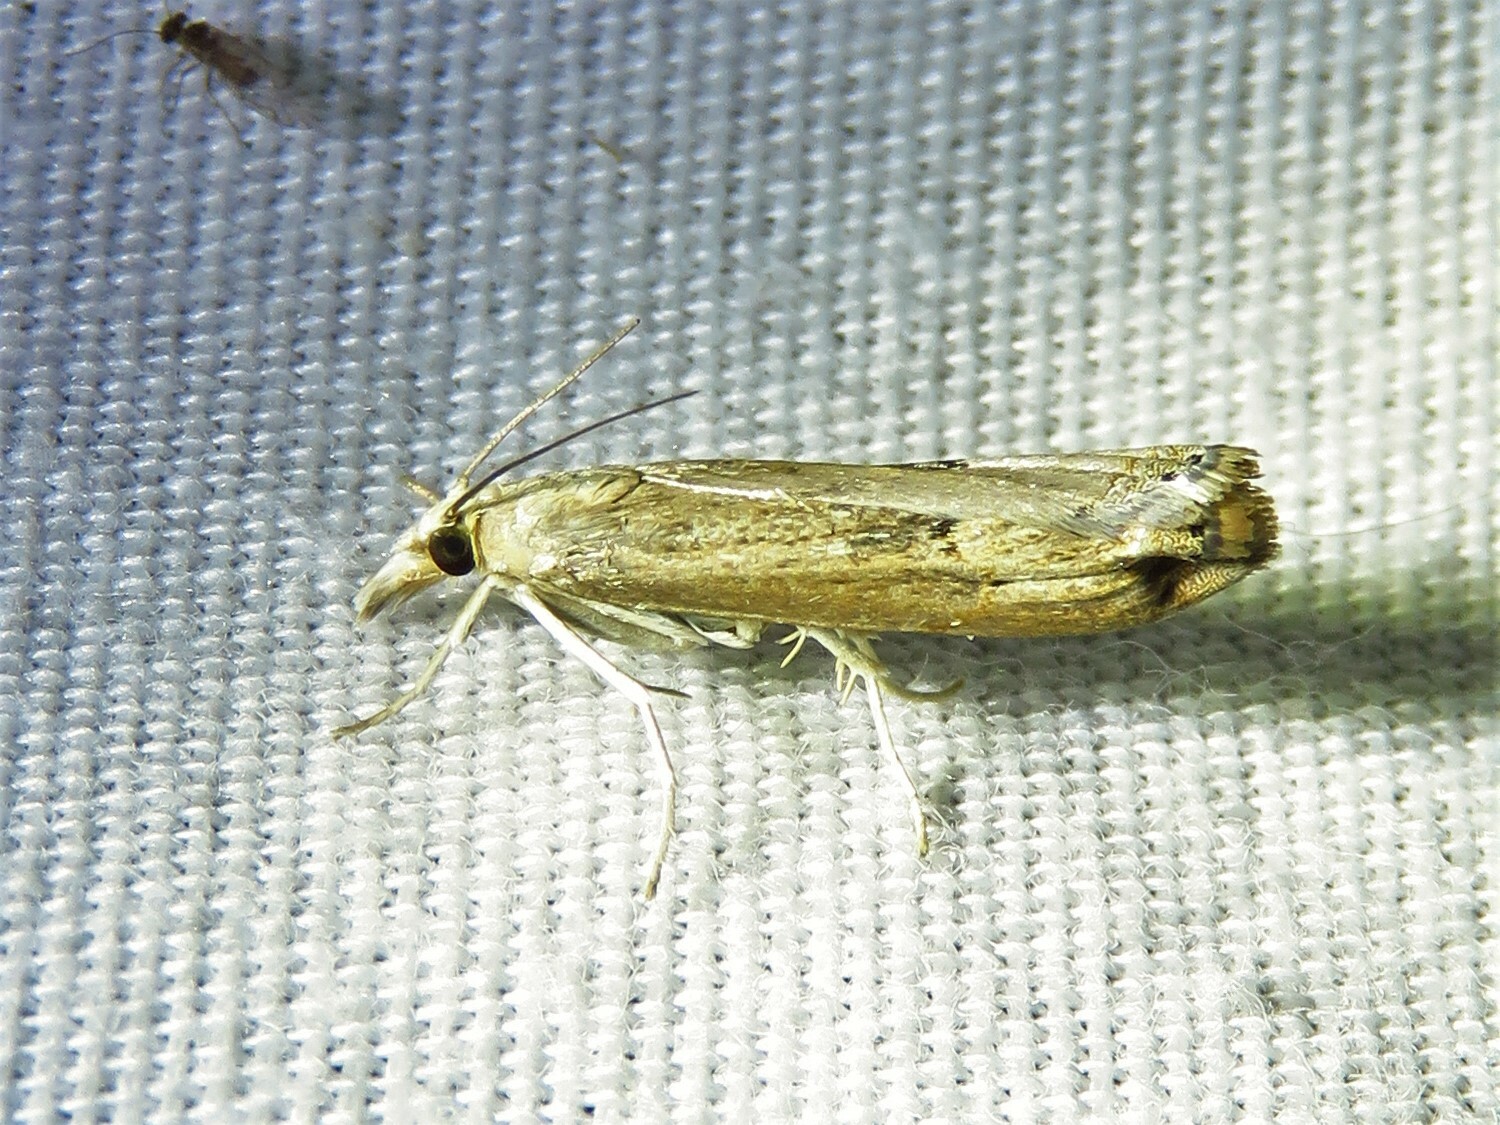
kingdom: Animalia
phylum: Arthropoda
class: Insecta
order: Lepidoptera
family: Crambidae
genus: Parapediasia
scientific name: Parapediasia teterellus
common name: Bluegrass webworm moth
